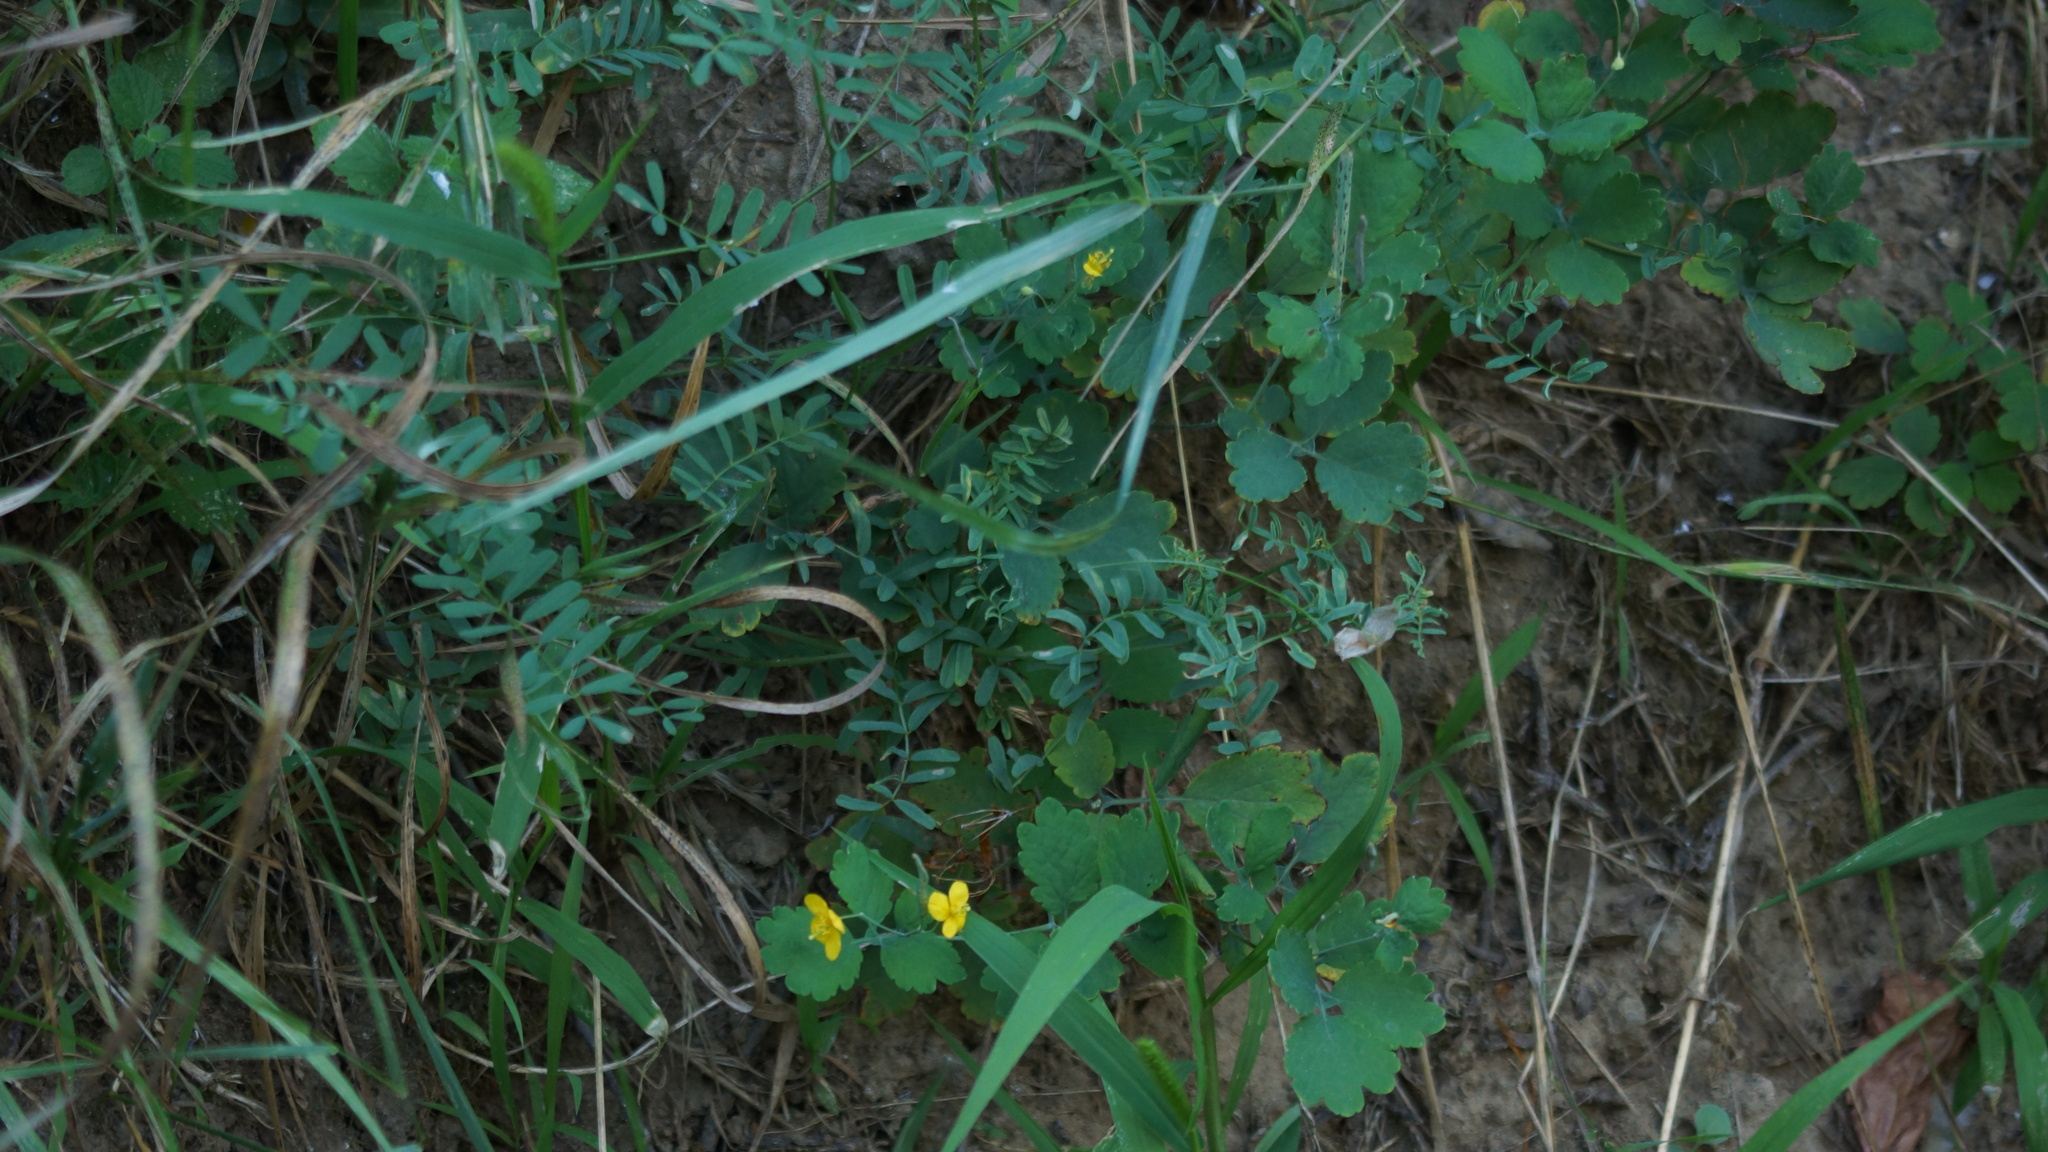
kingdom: Plantae
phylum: Tracheophyta
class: Magnoliopsida
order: Ranunculales
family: Papaveraceae
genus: Chelidonium
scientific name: Chelidonium majus
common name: Greater celandine
